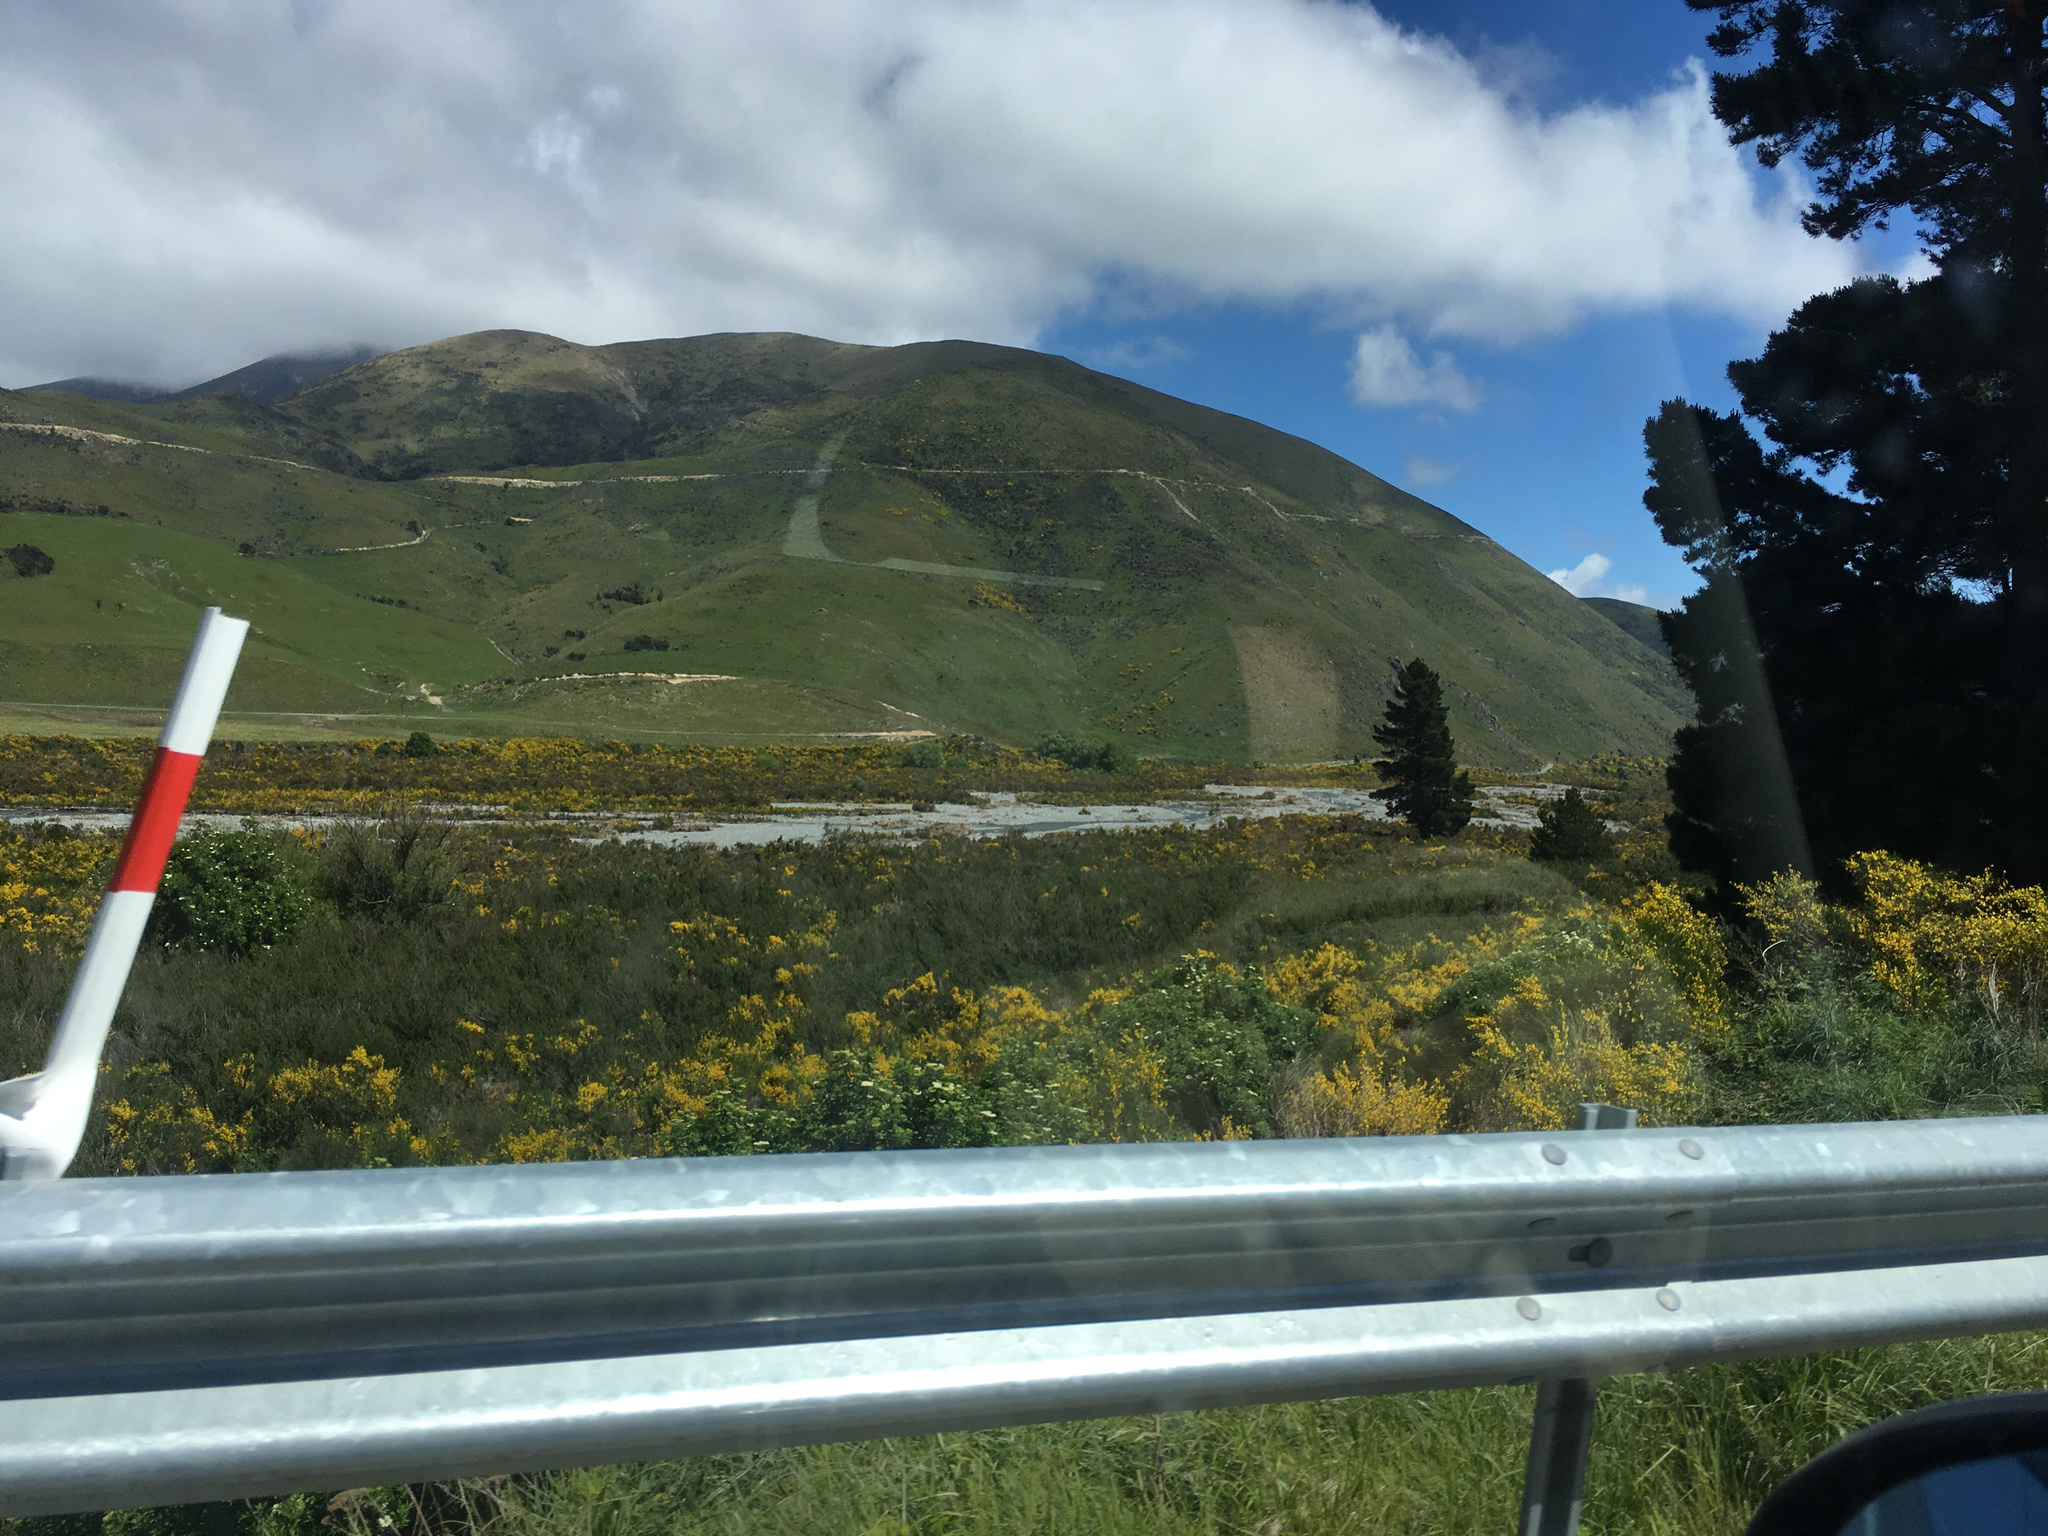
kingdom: Plantae
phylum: Tracheophyta
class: Magnoliopsida
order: Fabales
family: Fabaceae
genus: Cytisus
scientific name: Cytisus scoparius
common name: Scotch broom
